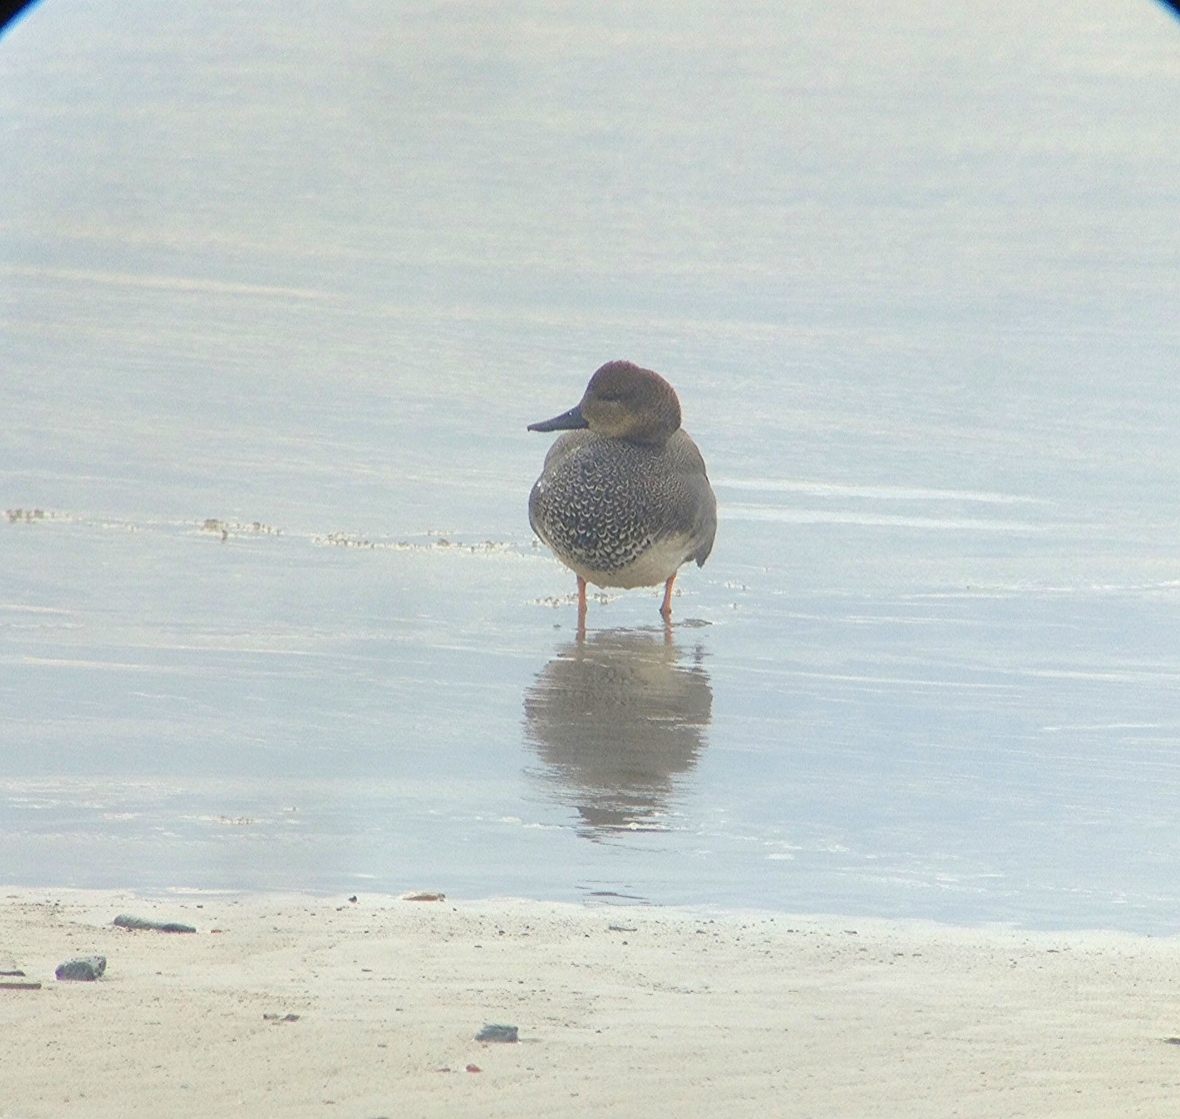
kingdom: Animalia
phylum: Chordata
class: Aves
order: Anseriformes
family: Anatidae
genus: Mareca
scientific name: Mareca strepera
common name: Gadwall
